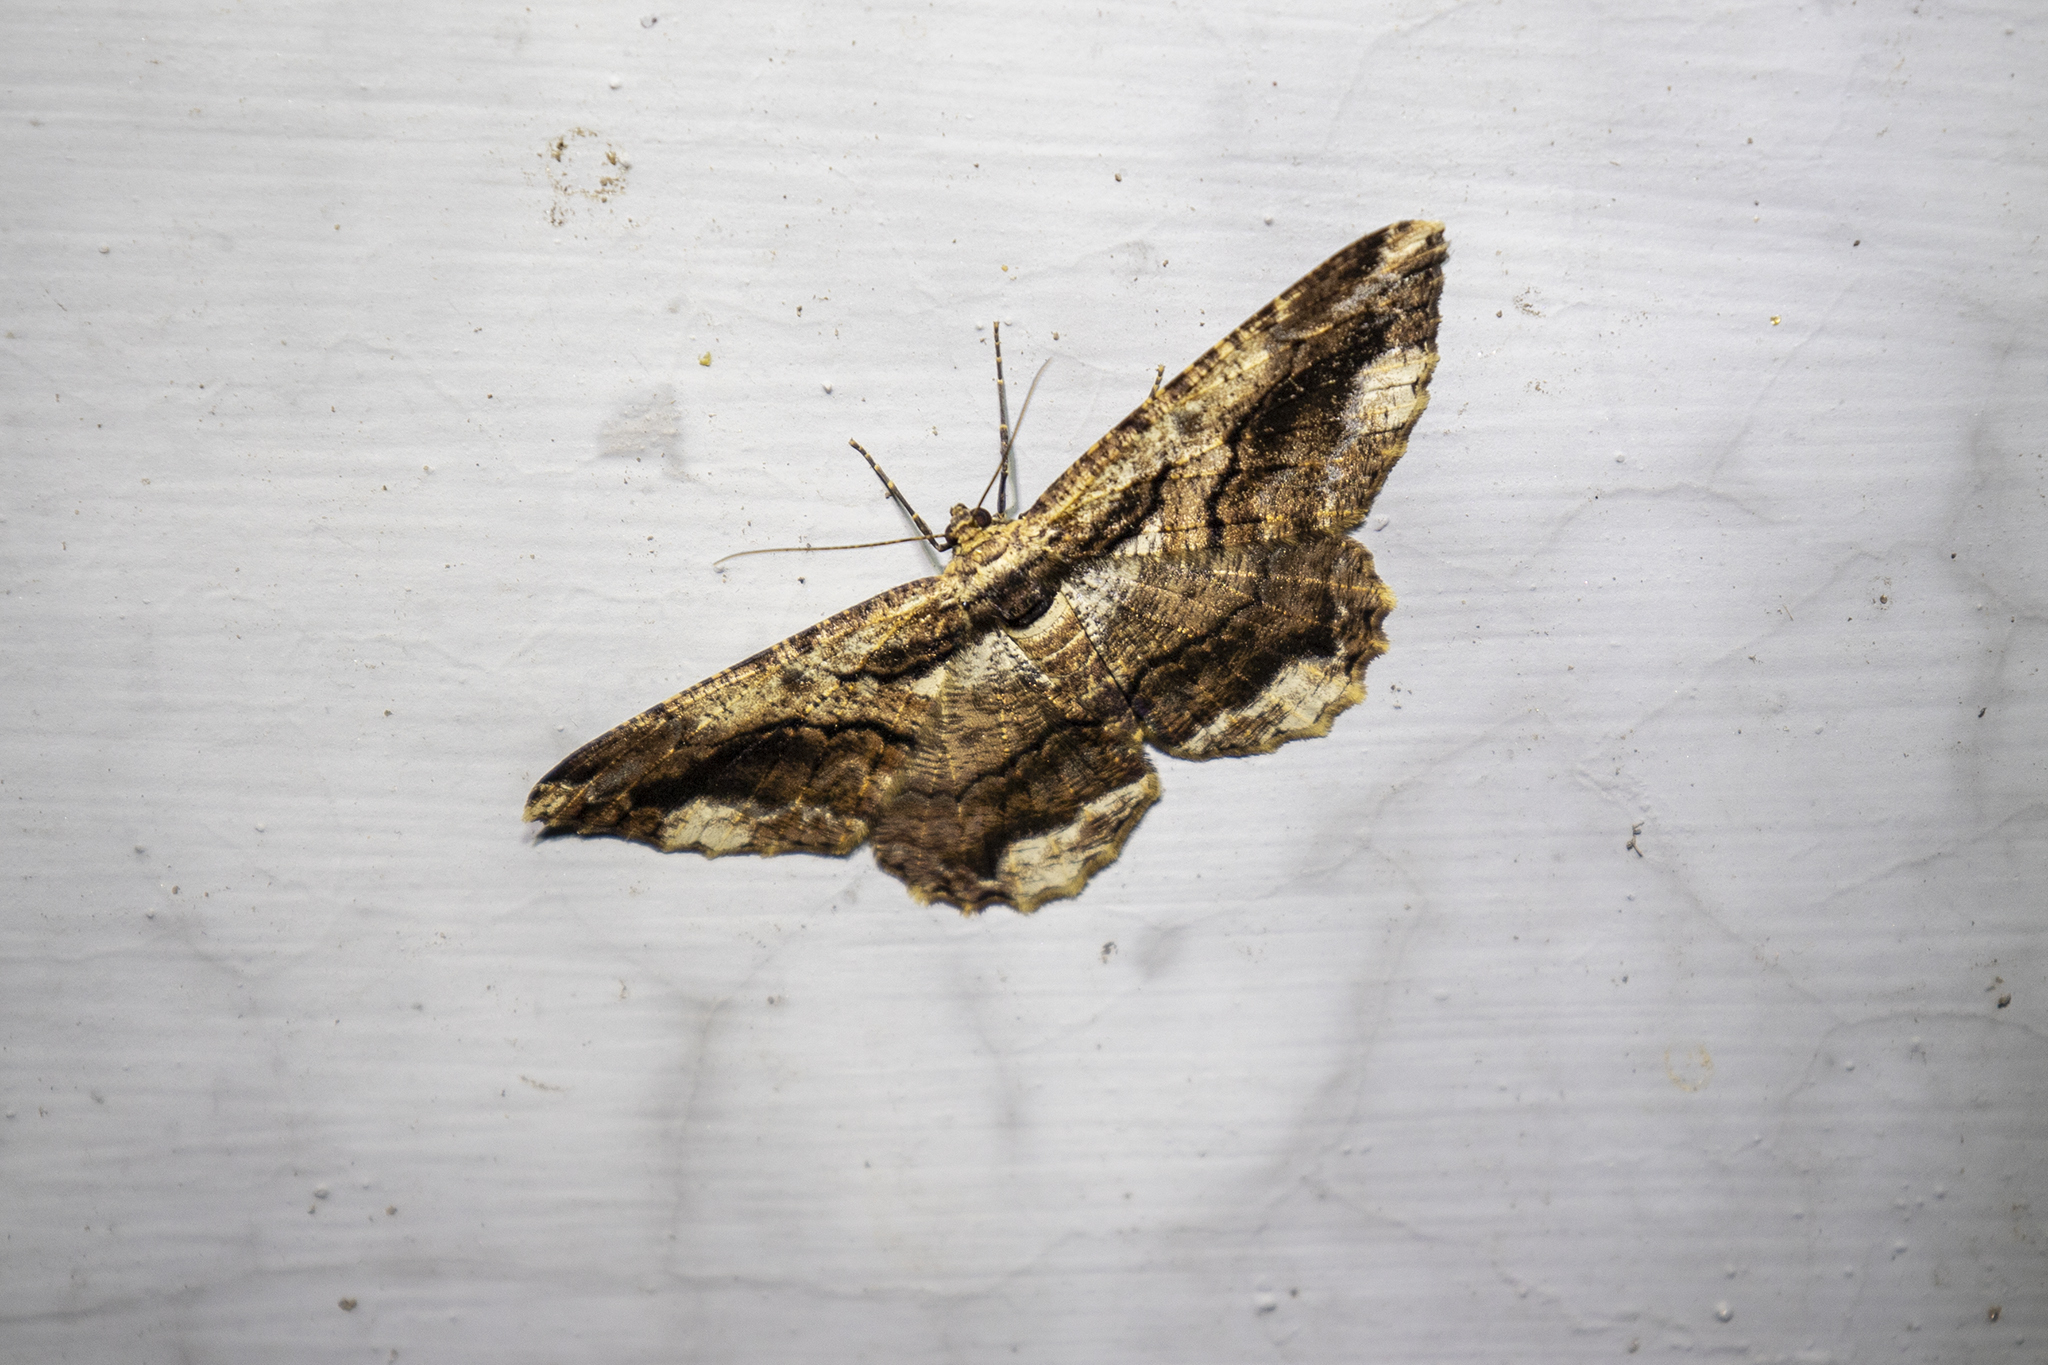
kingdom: Animalia
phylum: Arthropoda
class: Insecta
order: Lepidoptera
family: Geometridae
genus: Coremecis
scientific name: Coremecis nigrovittata
